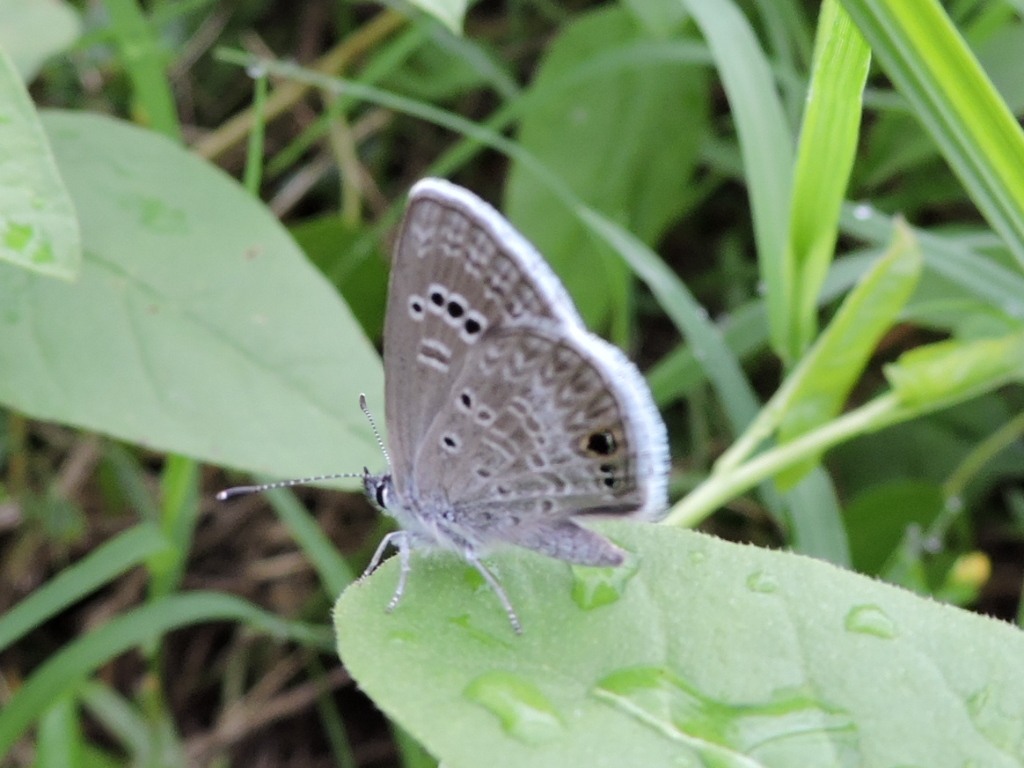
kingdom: Animalia
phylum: Arthropoda
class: Insecta
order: Lepidoptera
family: Lycaenidae
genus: Echinargus
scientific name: Echinargus isola
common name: Reakirt's blue
